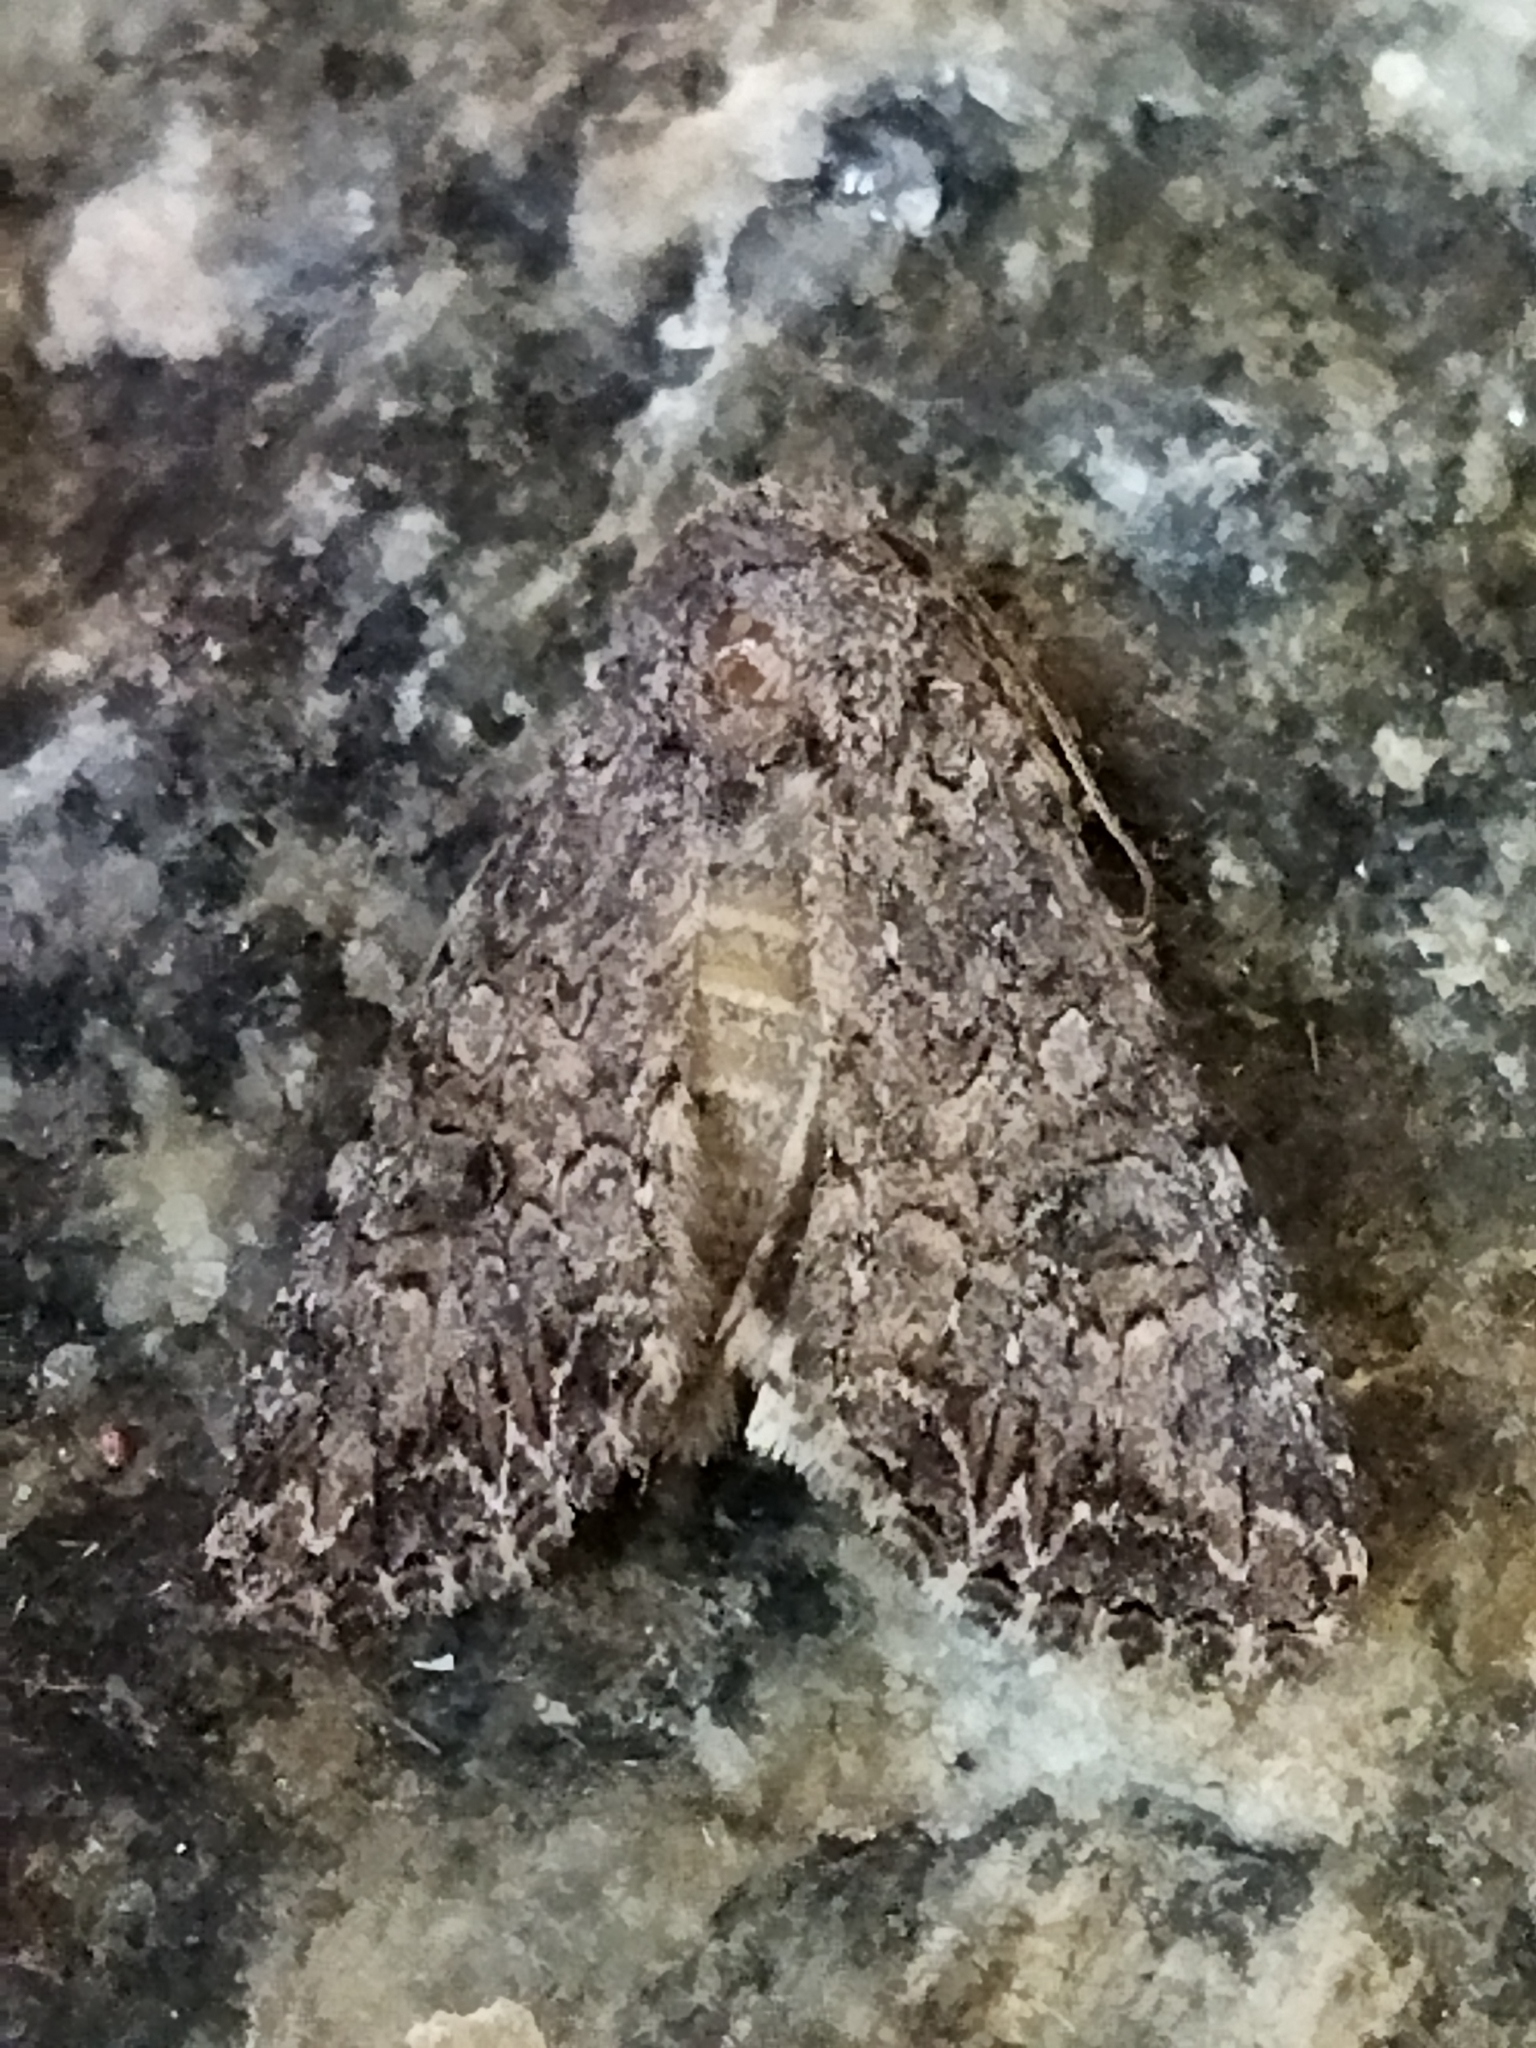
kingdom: Animalia
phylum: Arthropoda
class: Insecta
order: Lepidoptera
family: Noctuidae
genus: Anarta
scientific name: Anarta trifolii
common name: Clover cutworm moth
